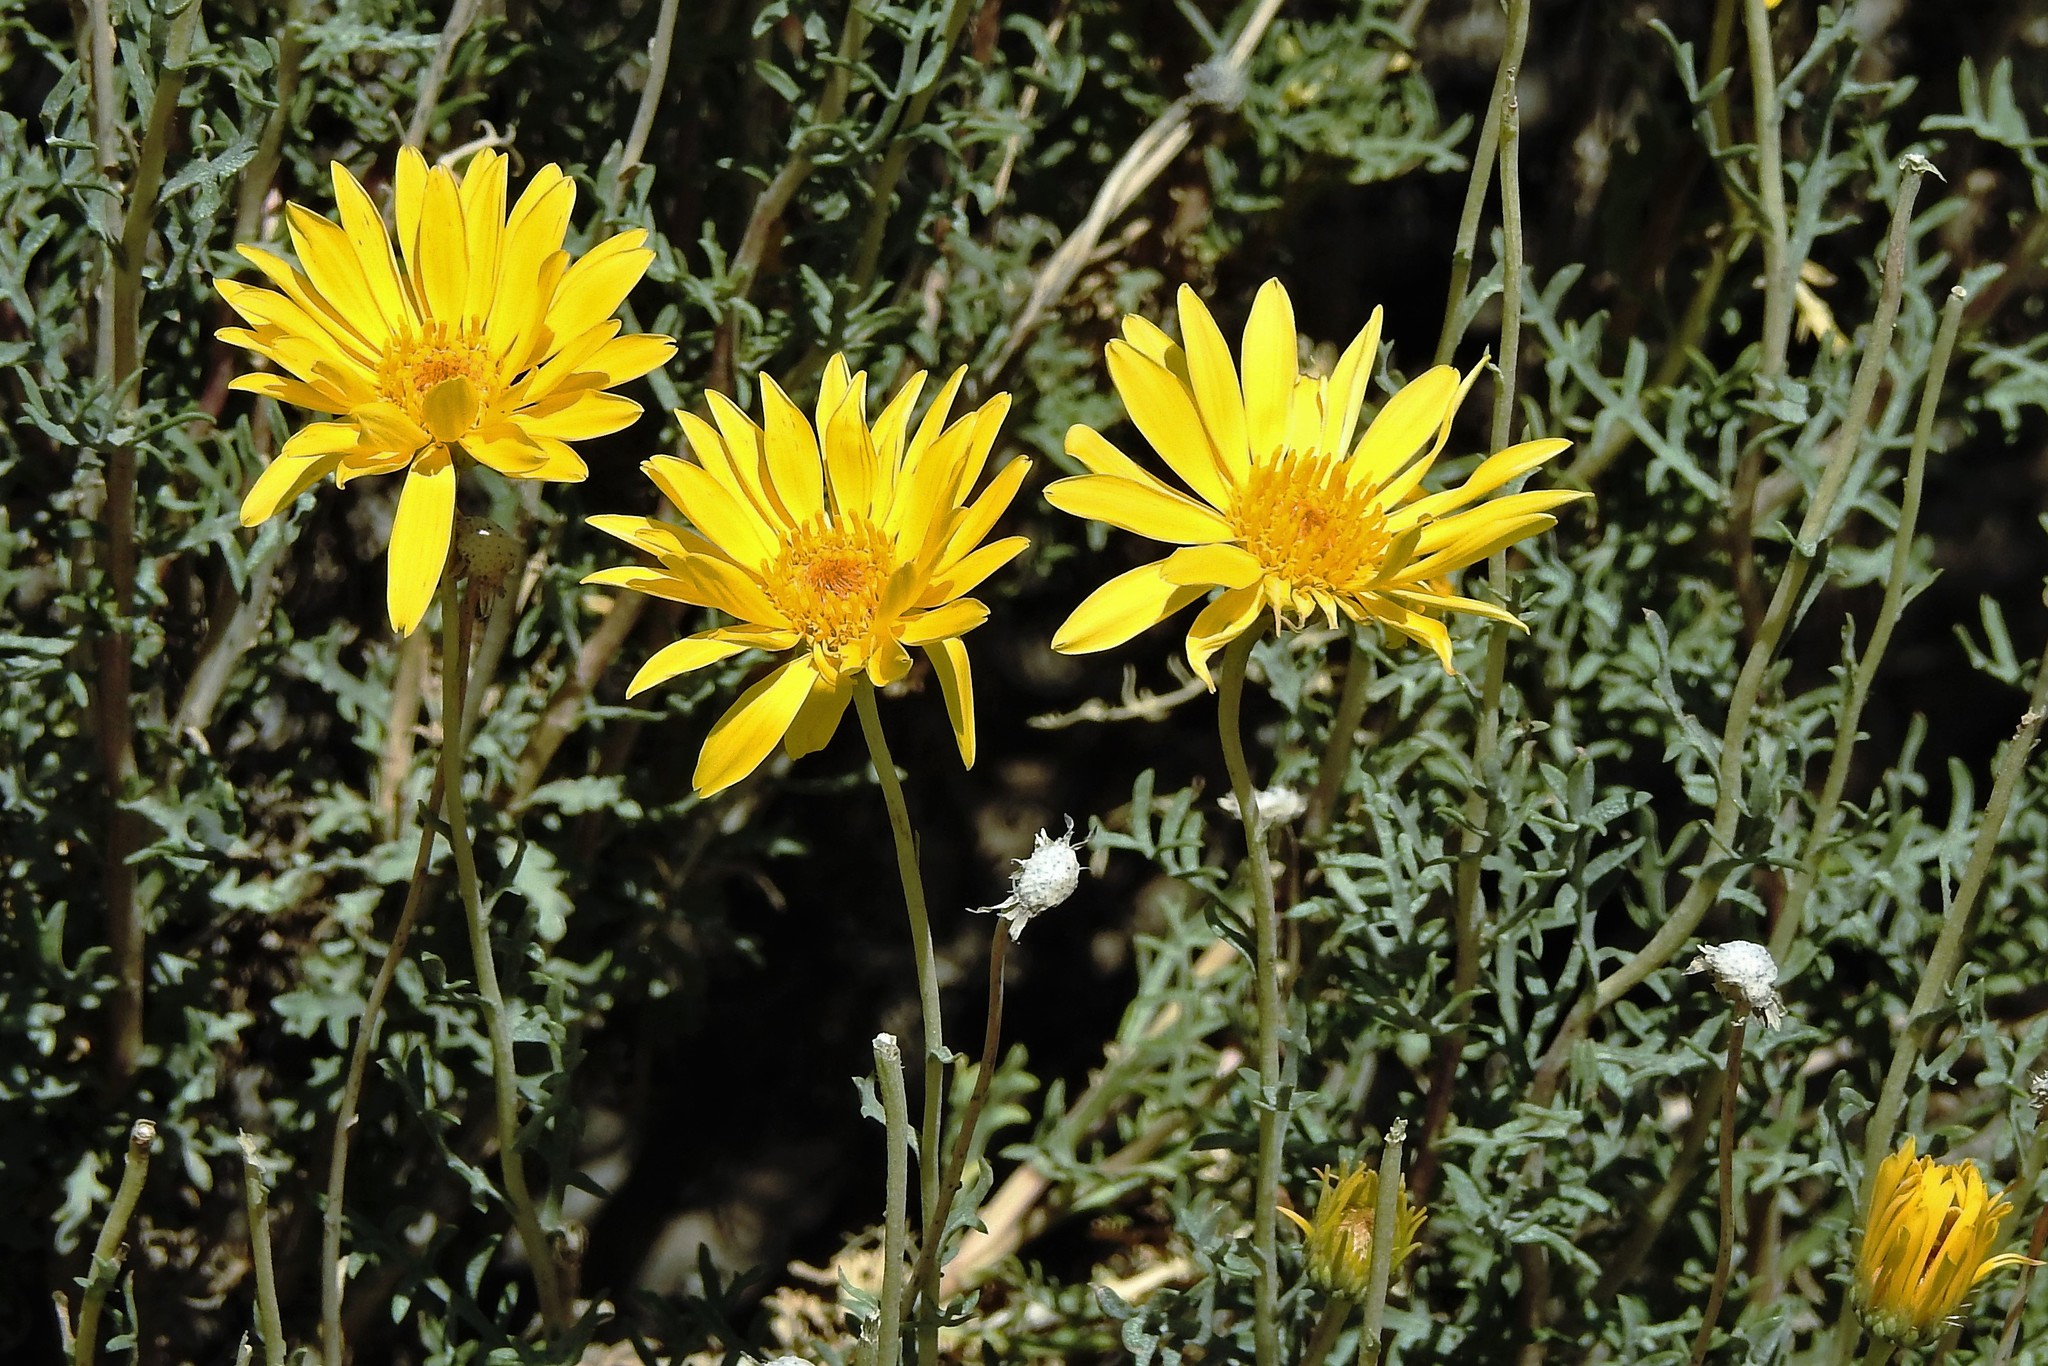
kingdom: Plantae
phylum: Tracheophyta
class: Magnoliopsida
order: Asterales
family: Asteraceae
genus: Grindelia
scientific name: Grindelia anethifolia
